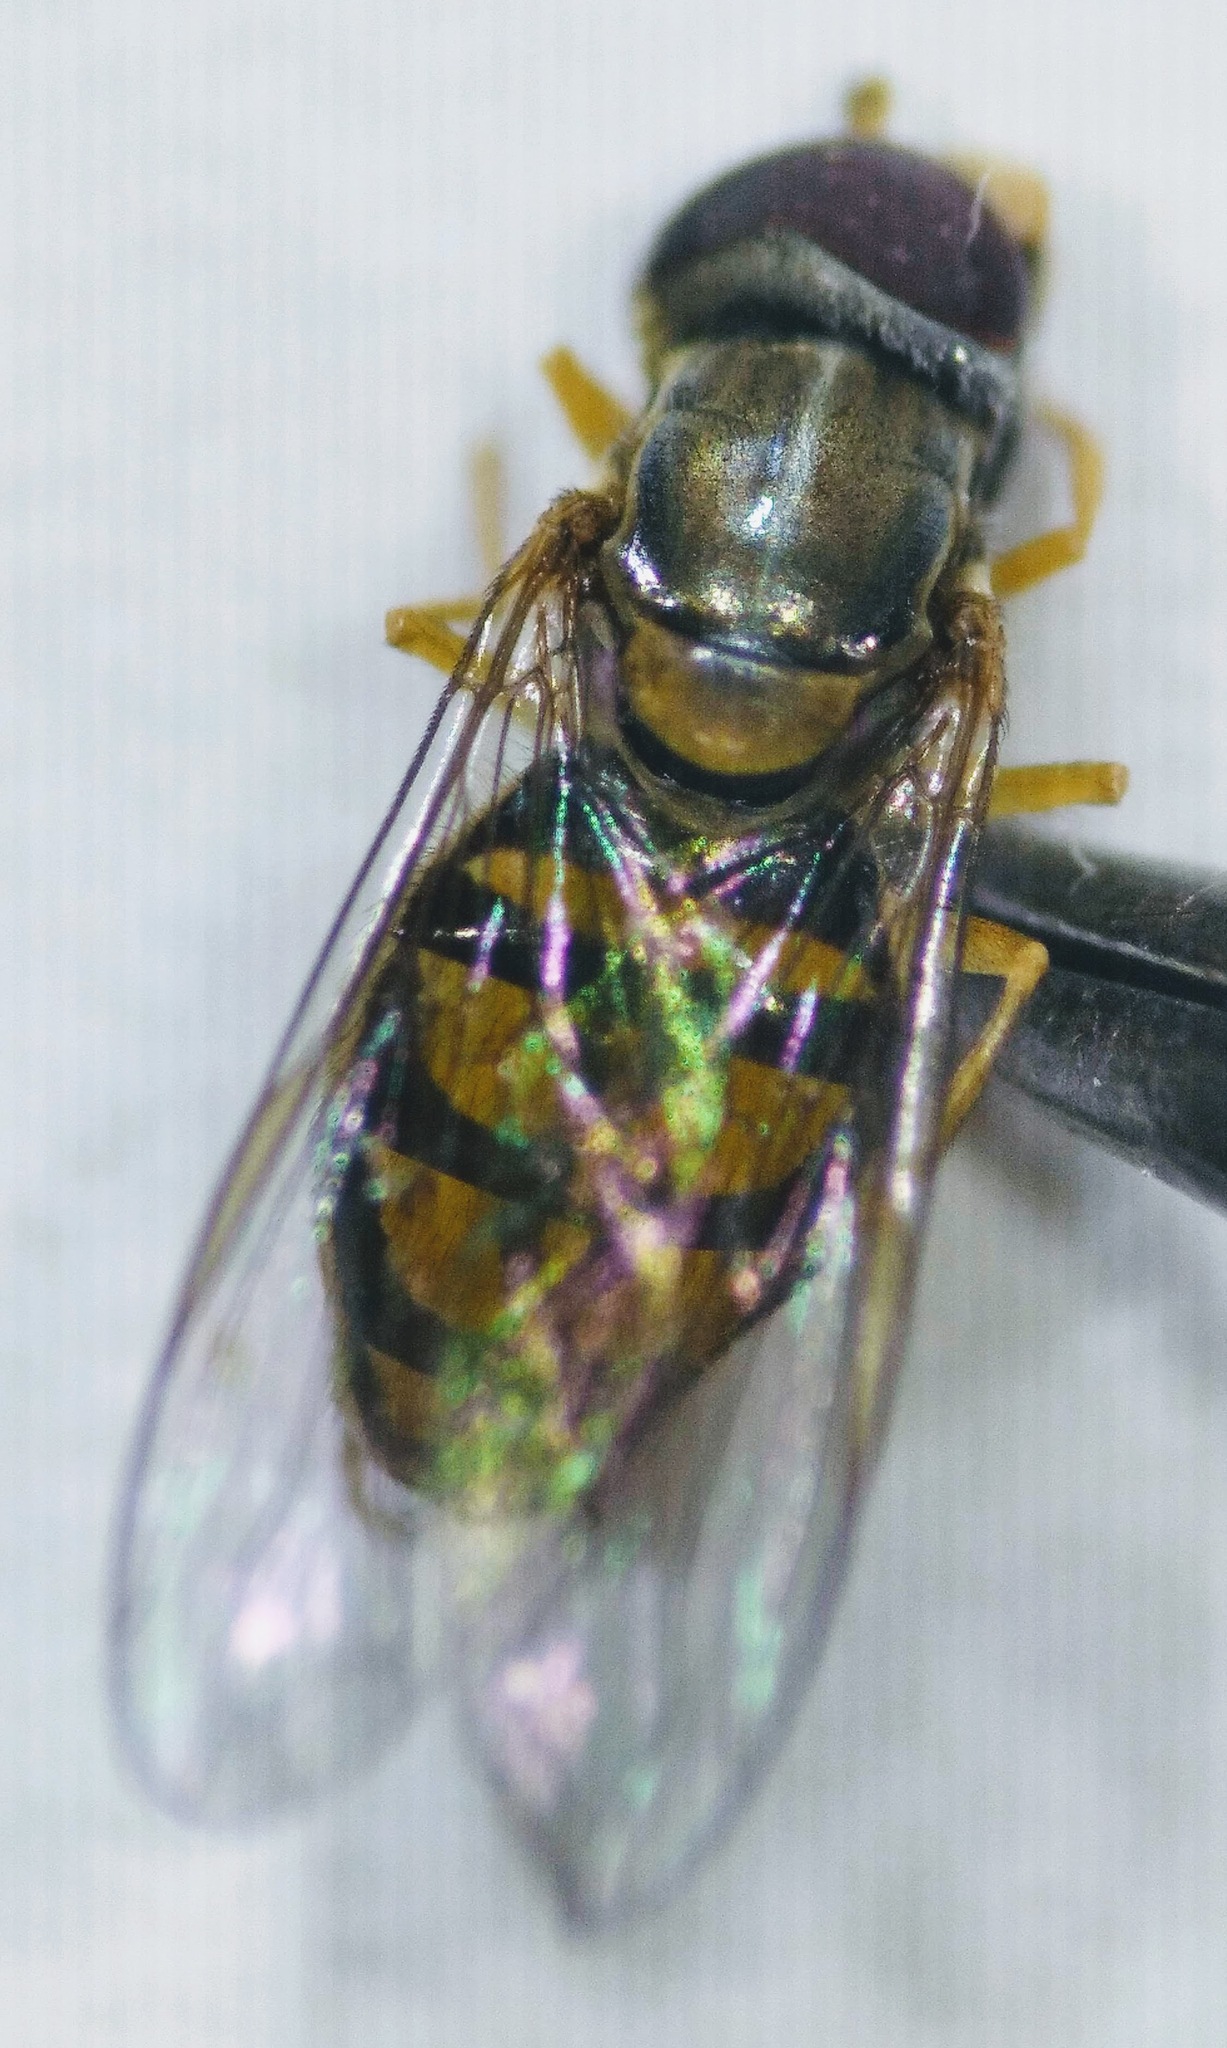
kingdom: Animalia
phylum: Arthropoda
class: Insecta
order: Diptera
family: Syrphidae
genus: Toxomerus
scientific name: Toxomerus marginatus
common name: Syrphid fly
